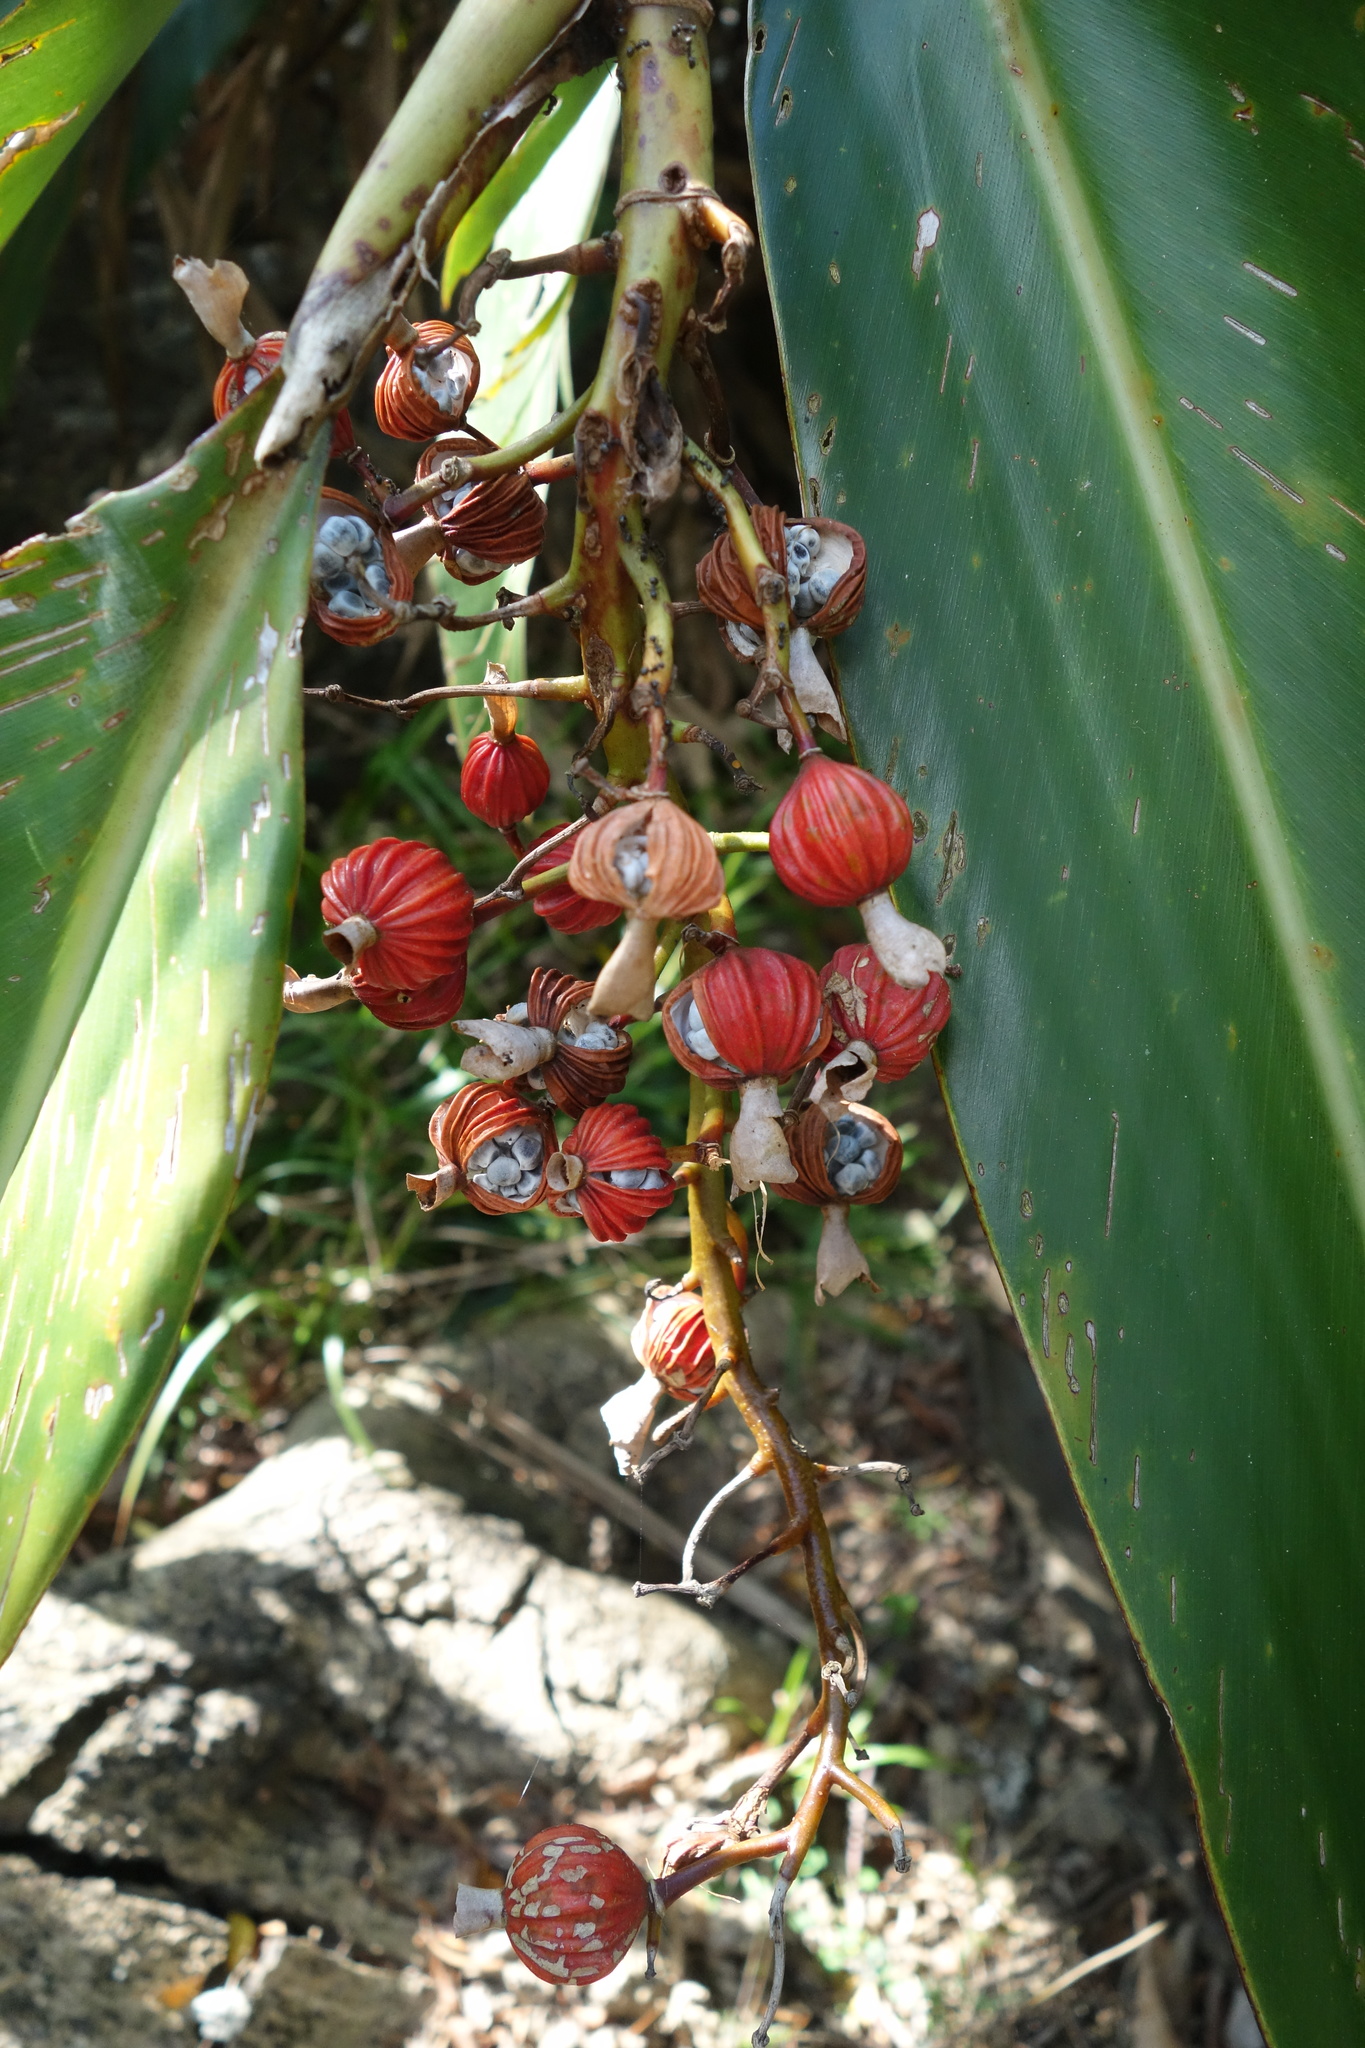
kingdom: Plantae
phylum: Tracheophyta
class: Liliopsida
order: Zingiberales
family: Zingiberaceae
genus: Alpinia
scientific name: Alpinia zerumbet
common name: Shellplant
